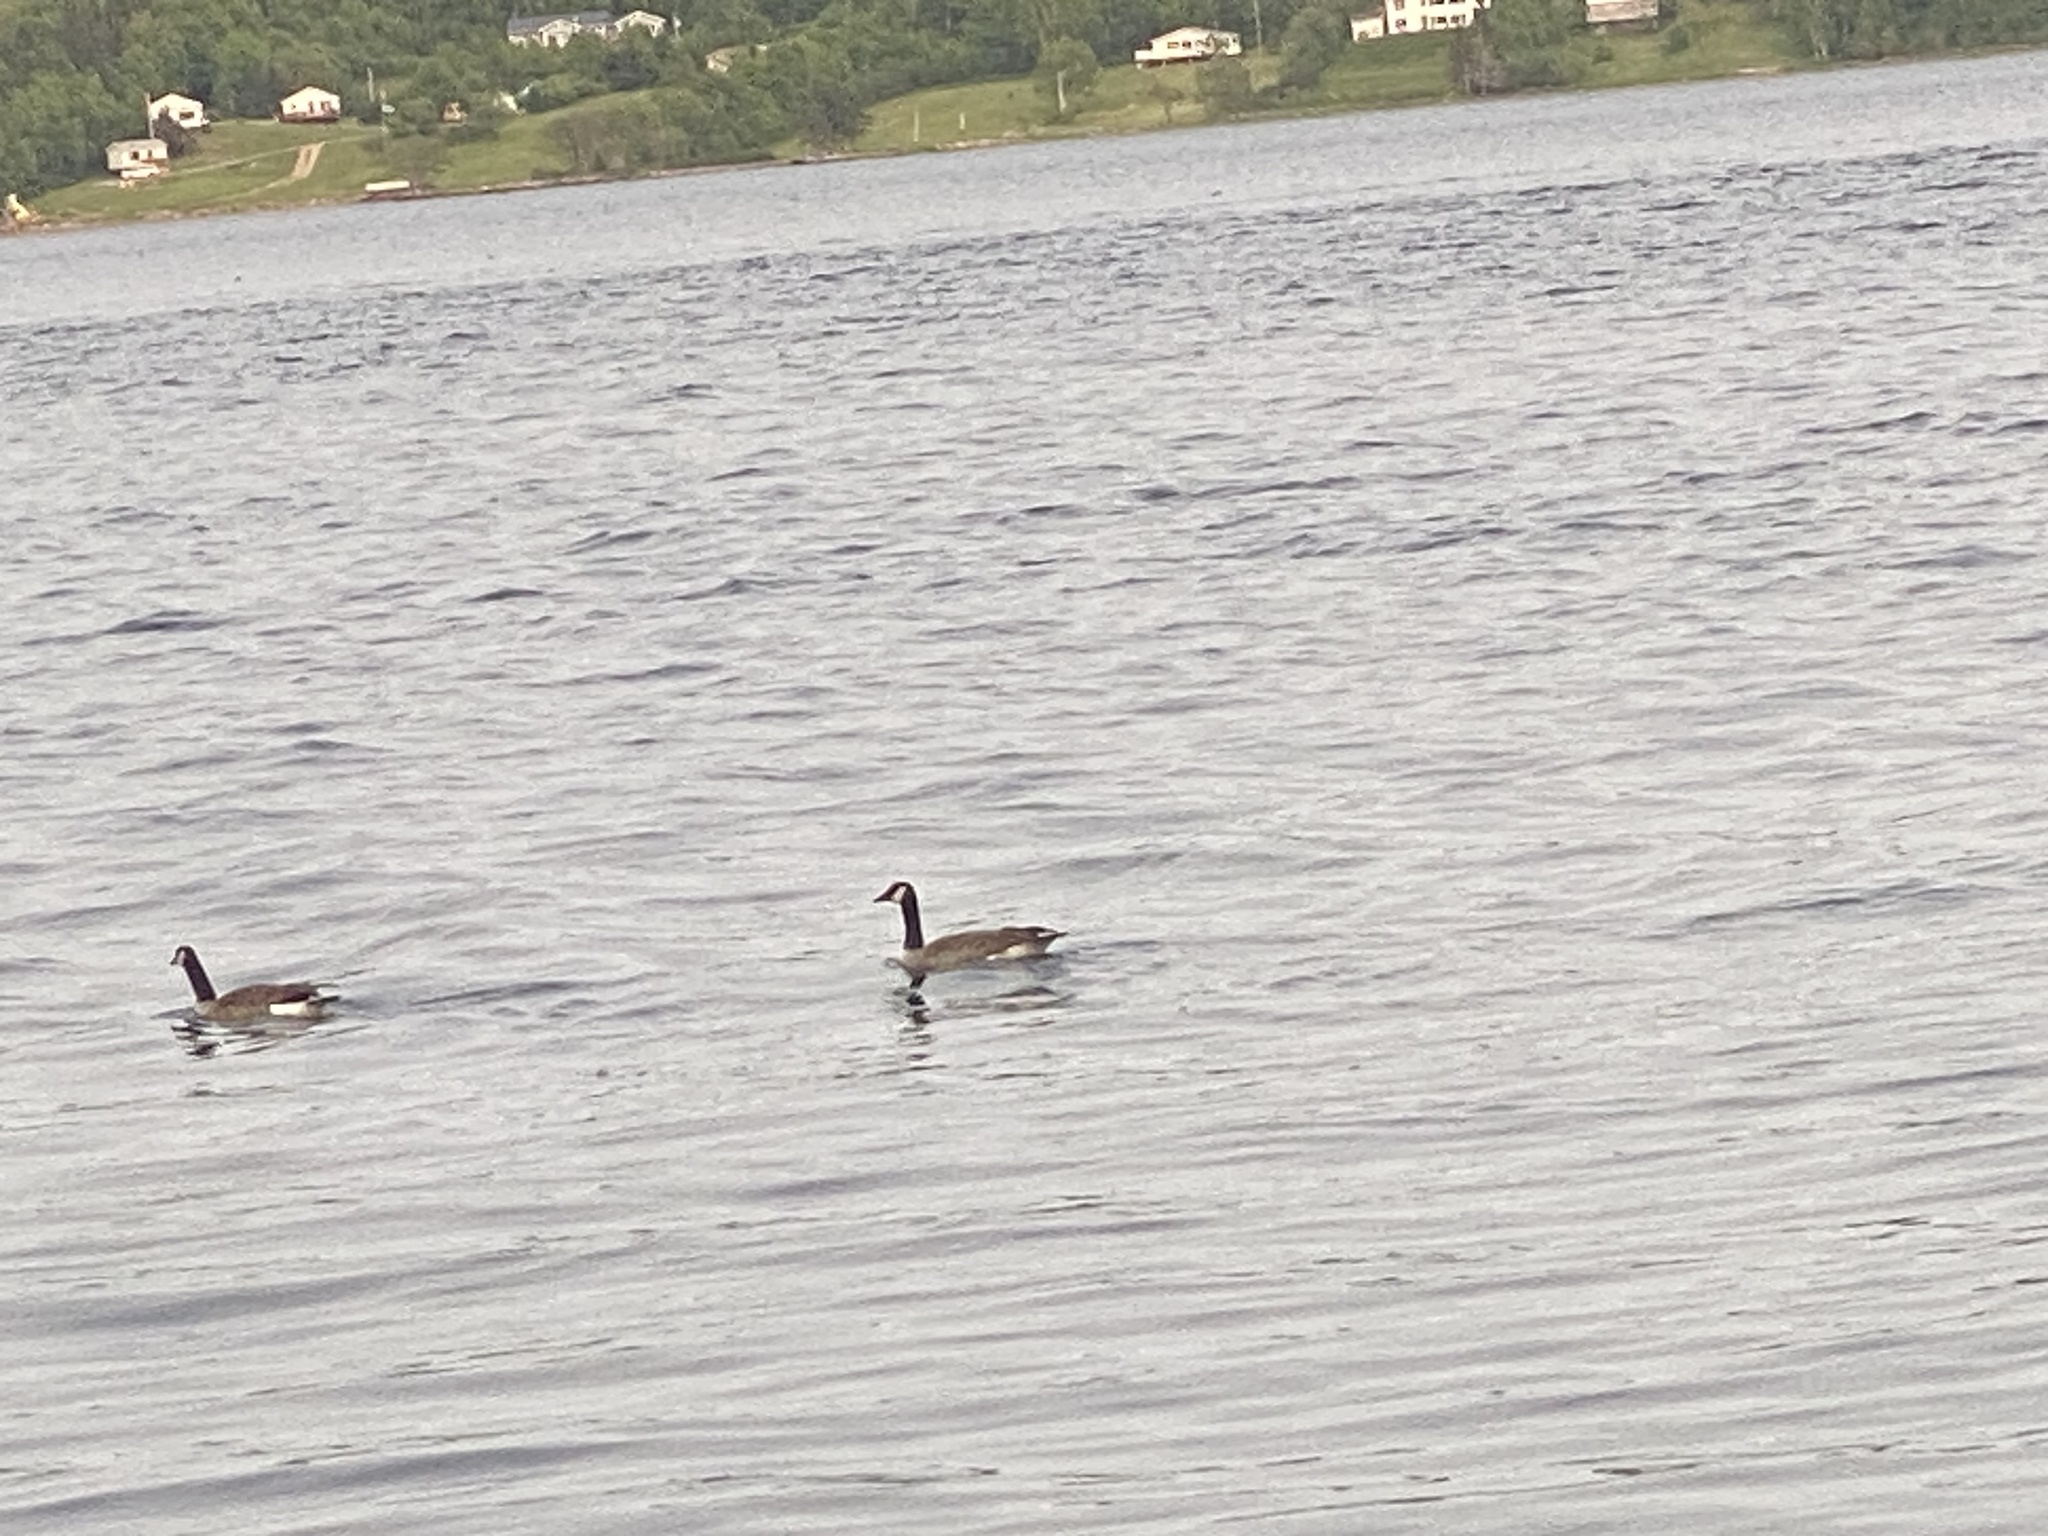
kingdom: Animalia
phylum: Chordata
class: Aves
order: Anseriformes
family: Anatidae
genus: Branta
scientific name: Branta canadensis
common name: Canada goose
